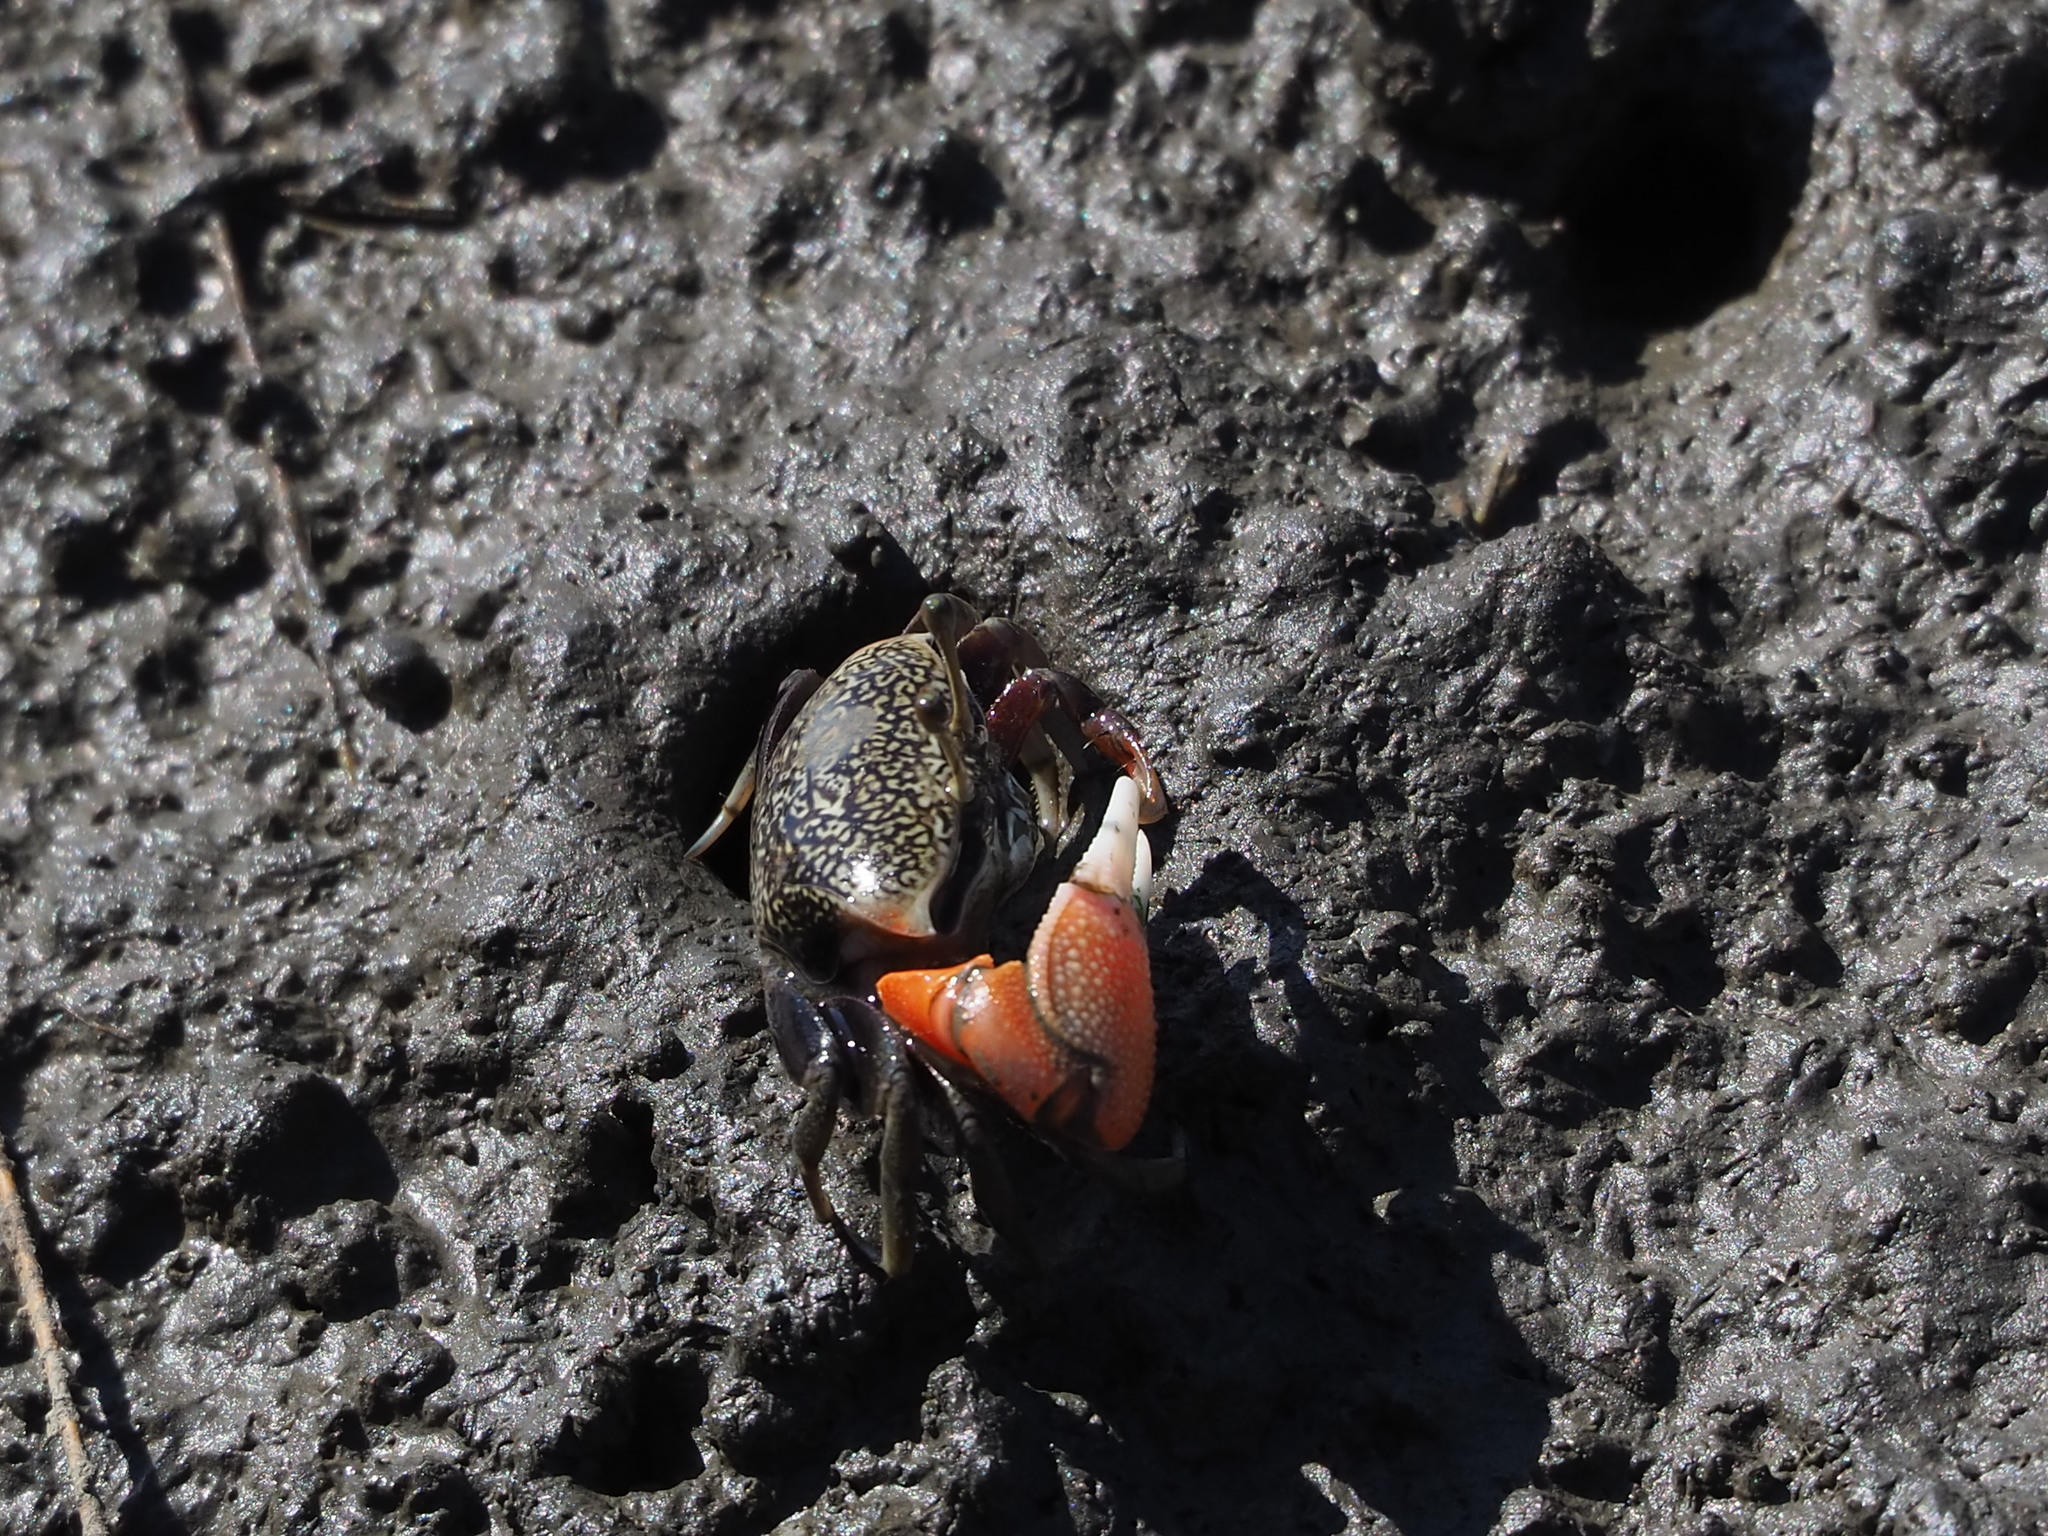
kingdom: Animalia
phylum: Arthropoda
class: Malacostraca
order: Decapoda
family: Ocypodidae
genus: Tubuca
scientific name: Tubuca arcuata
